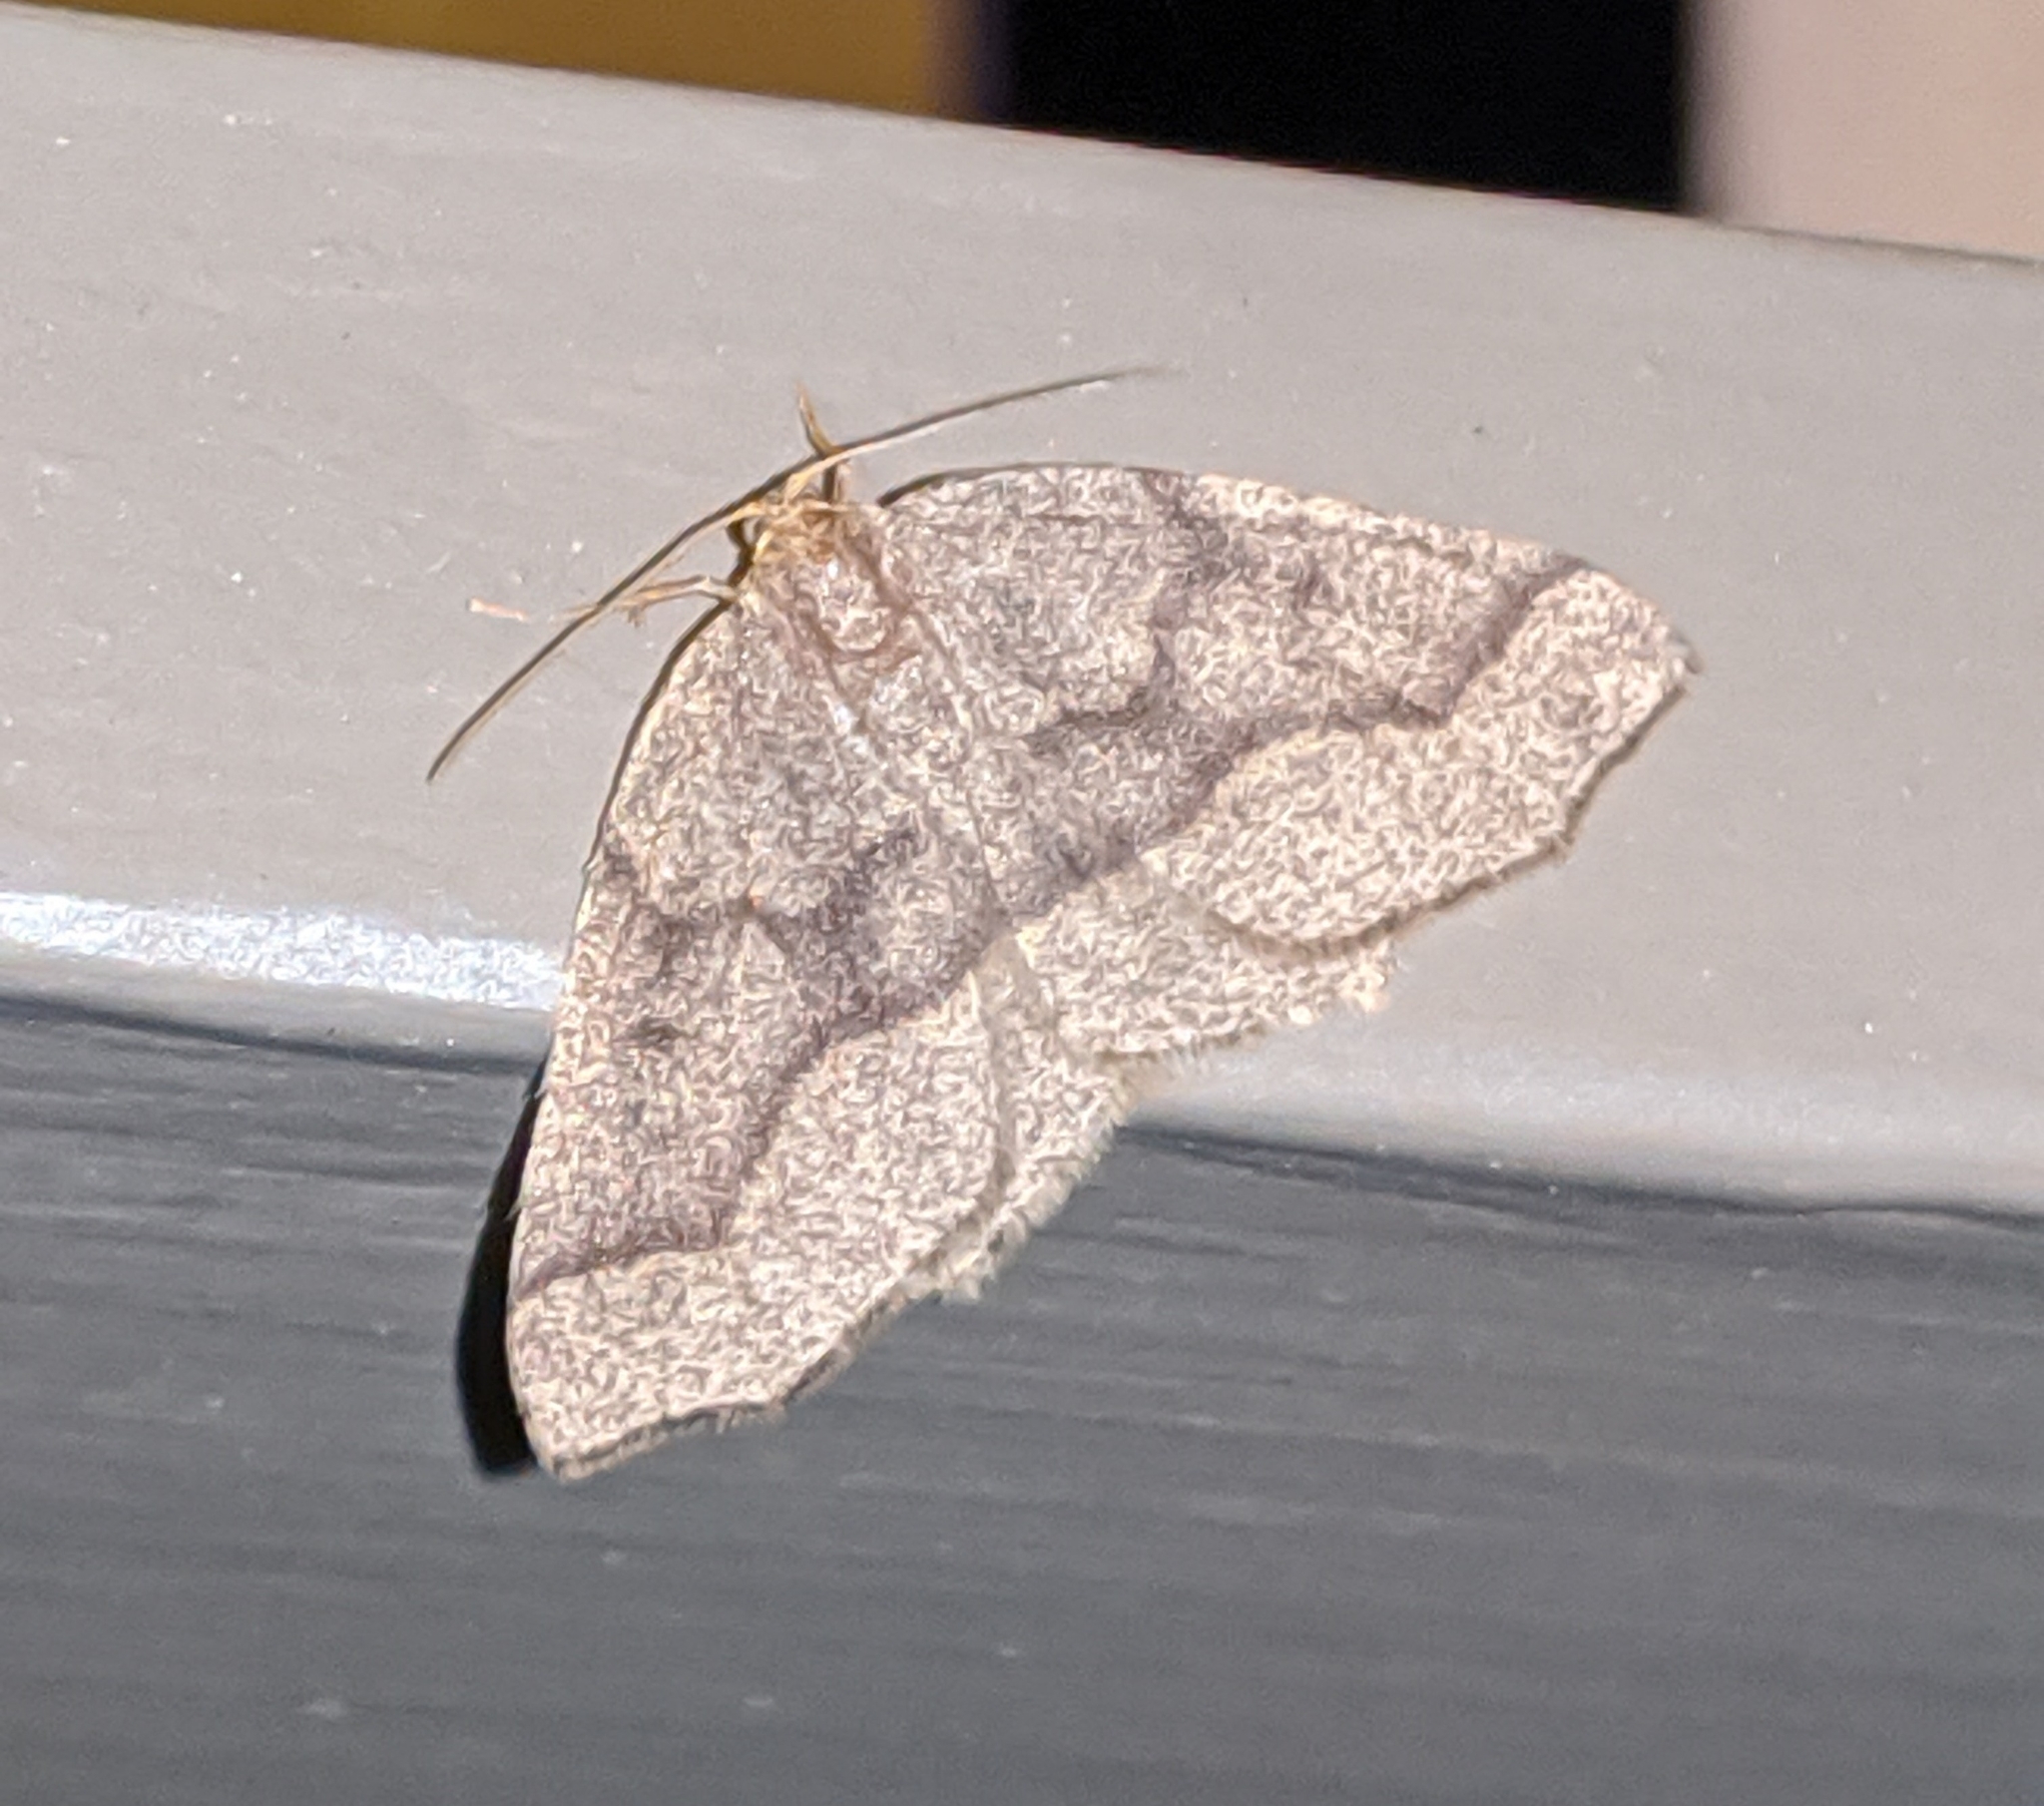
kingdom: Animalia
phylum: Arthropoda
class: Insecta
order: Lepidoptera
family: Geometridae
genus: Lambdina
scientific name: Lambdina fiscellaria
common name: Hemlock looper
